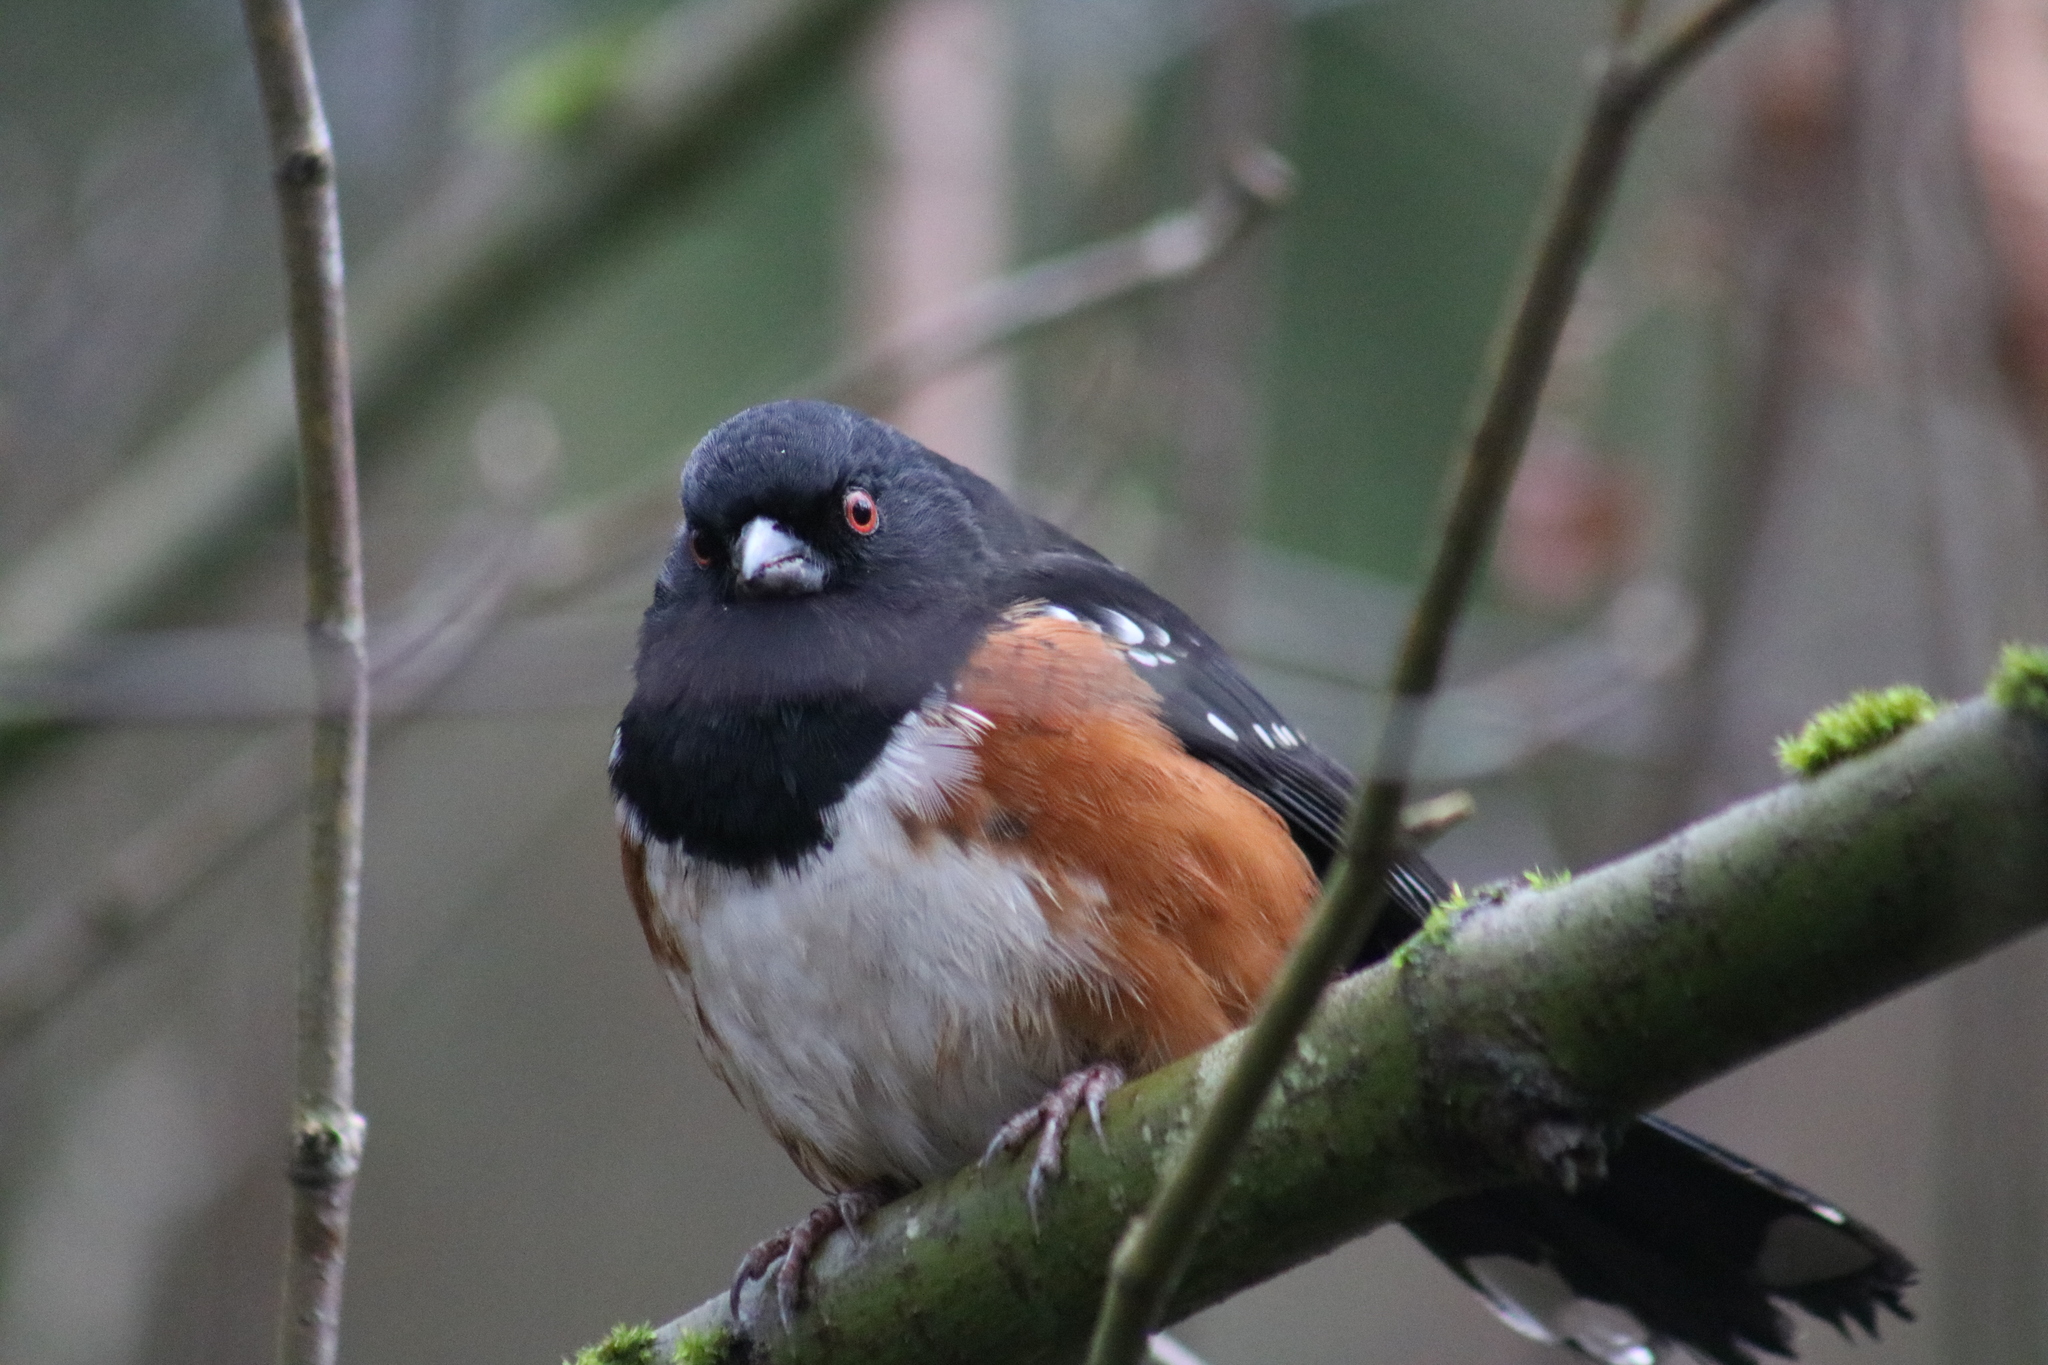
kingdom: Animalia
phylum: Chordata
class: Aves
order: Passeriformes
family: Passerellidae
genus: Pipilo
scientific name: Pipilo maculatus
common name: Spotted towhee
